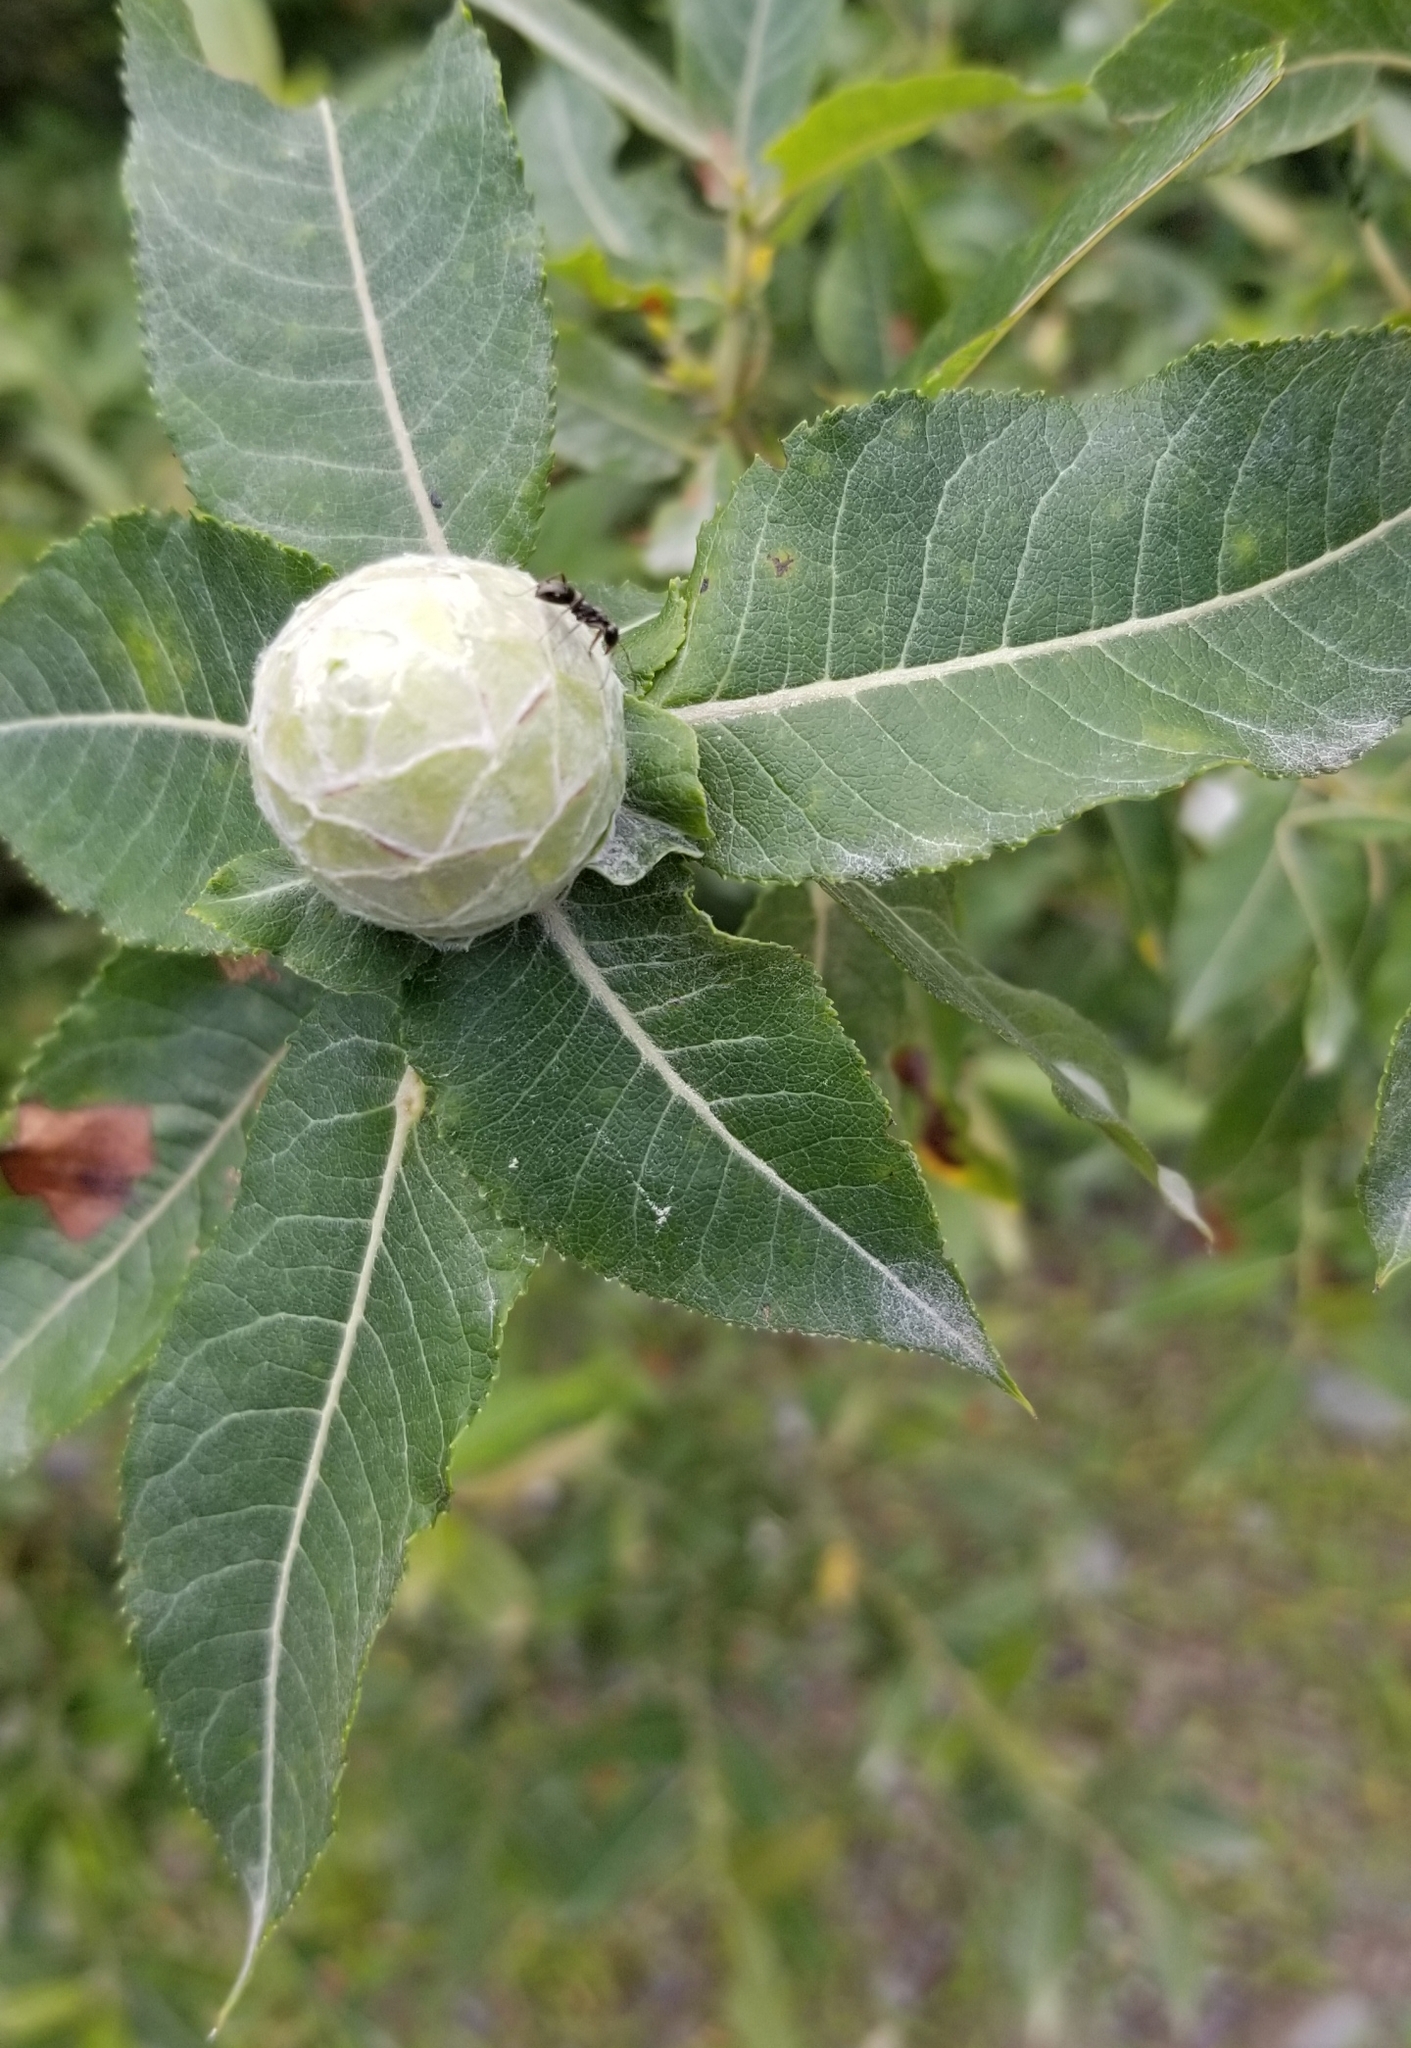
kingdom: Animalia
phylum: Arthropoda
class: Insecta
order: Diptera
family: Cecidomyiidae
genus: Rabdophaga
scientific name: Rabdophaga strobiloides
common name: Willow pinecone gall midge
